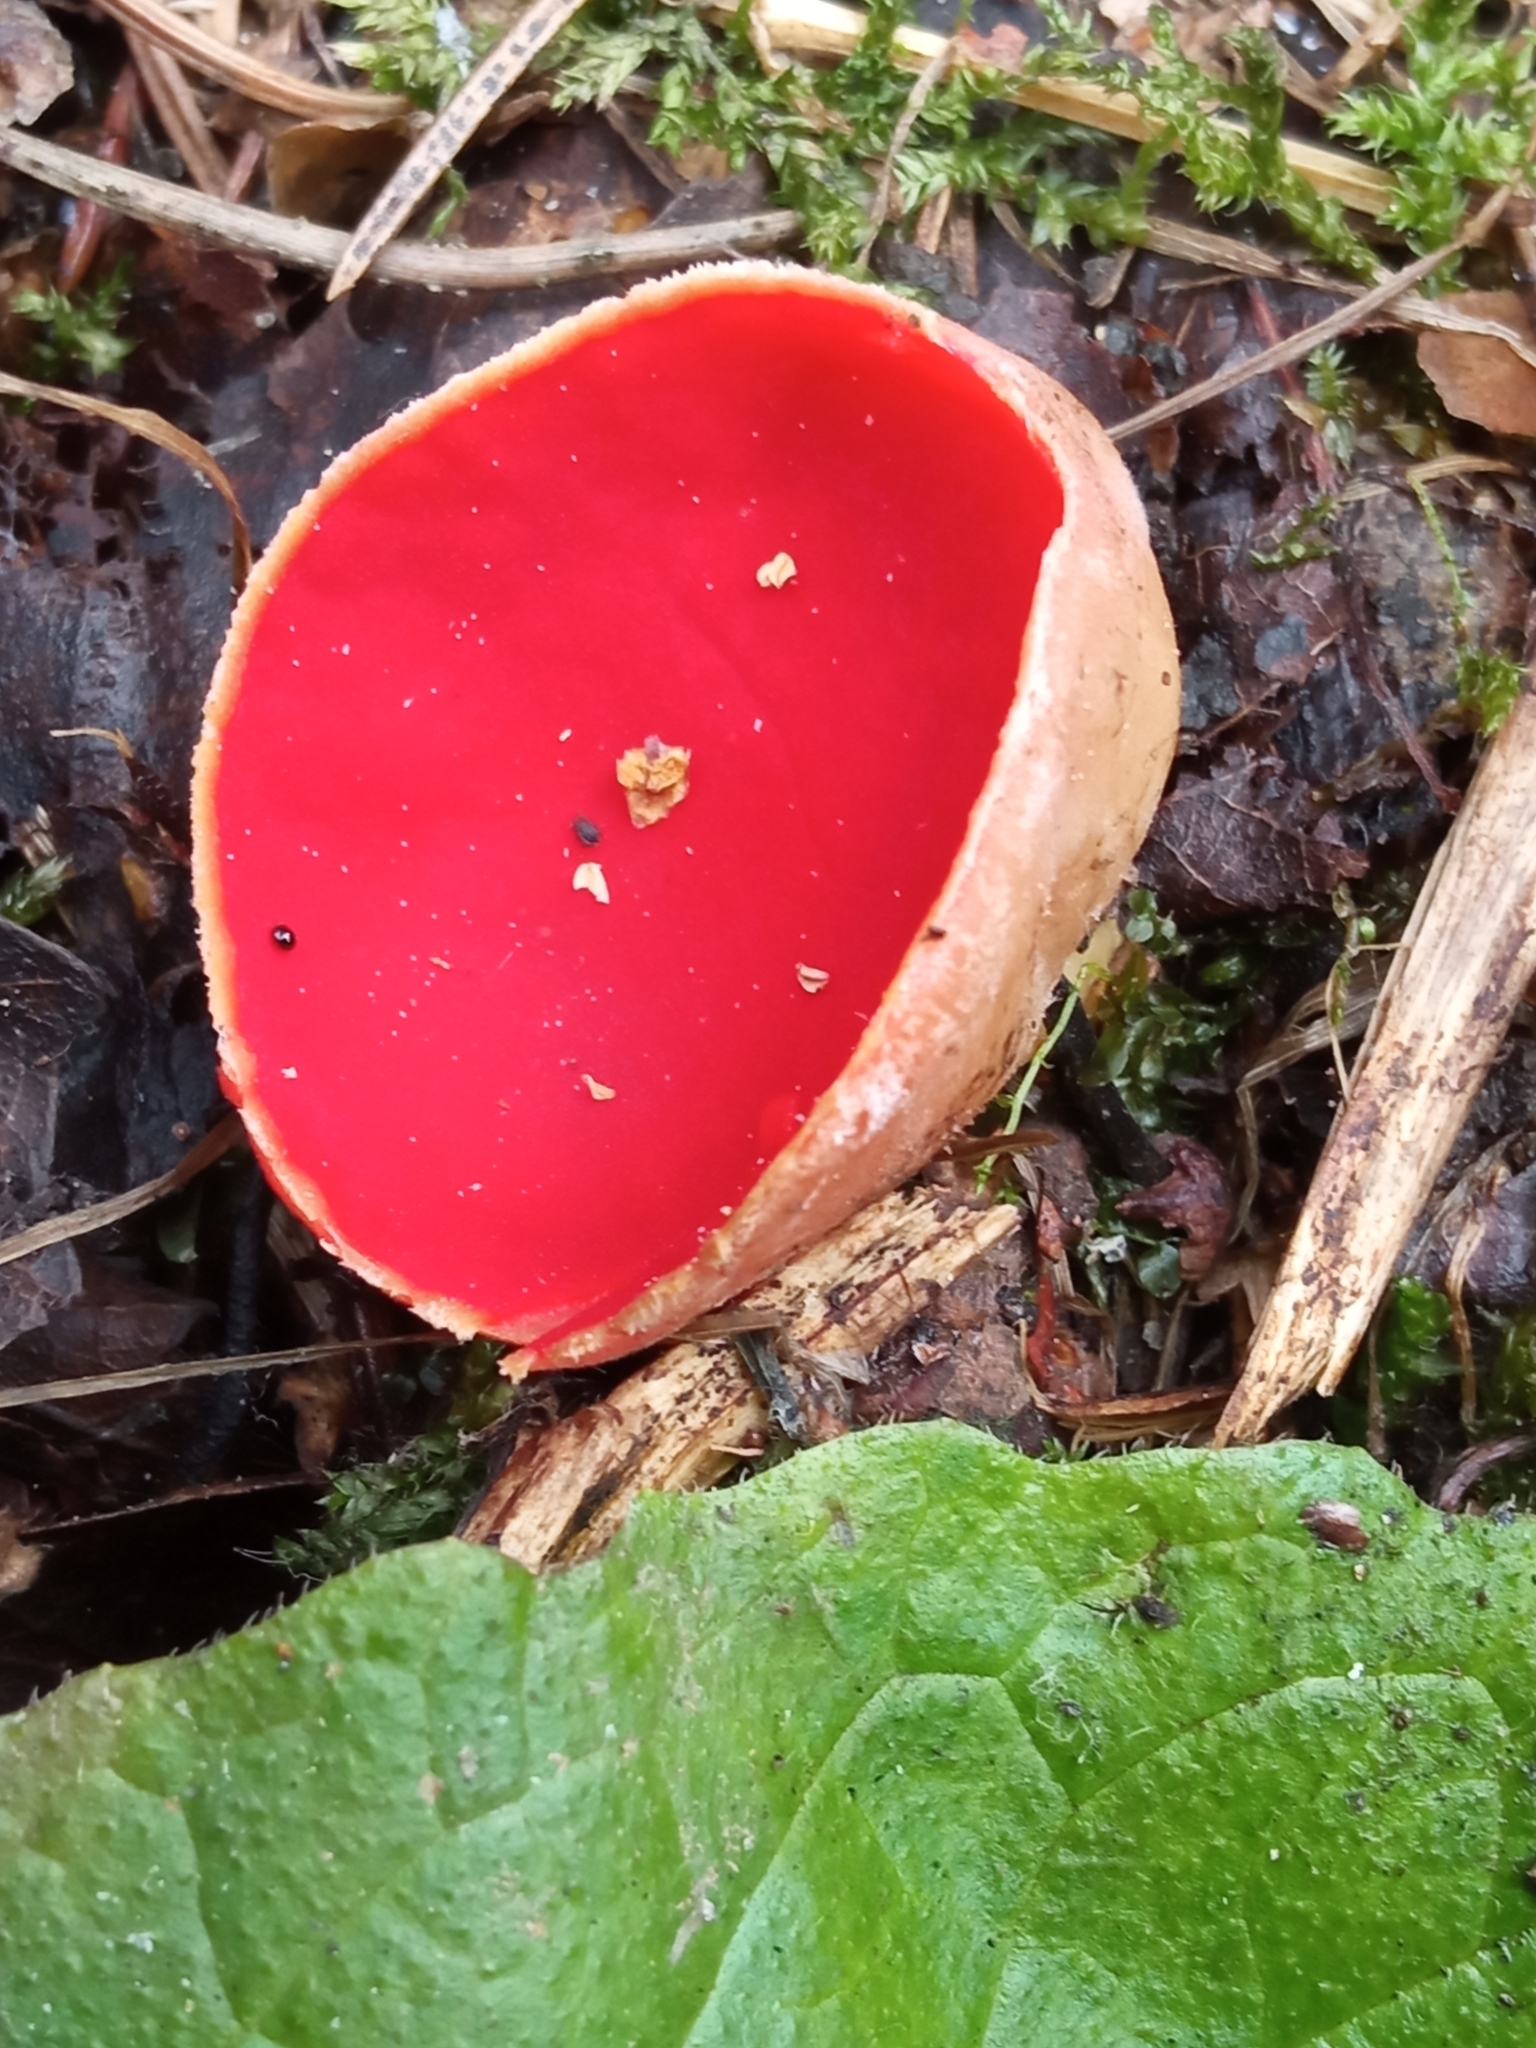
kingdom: Fungi
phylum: Ascomycota
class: Pezizomycetes
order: Pezizales
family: Sarcoscyphaceae
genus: Sarcoscypha
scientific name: Sarcoscypha austriaca
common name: Scarlet elfcup
